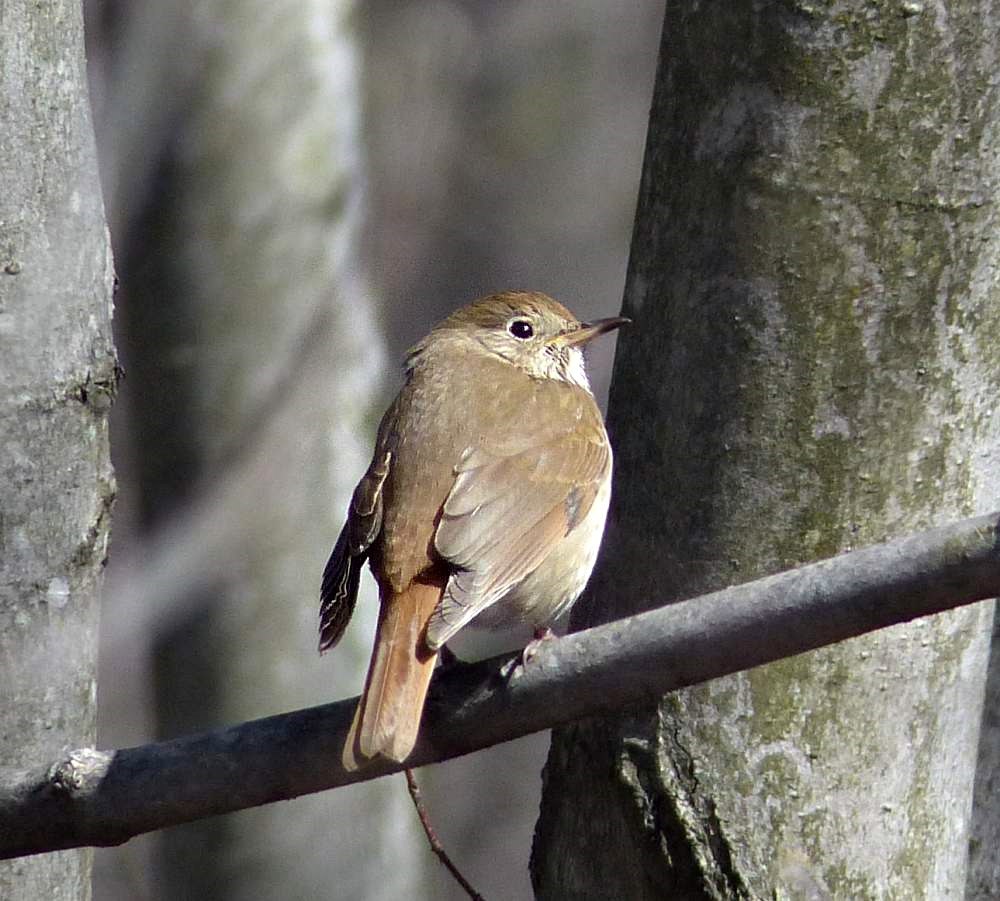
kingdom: Animalia
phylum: Chordata
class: Aves
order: Passeriformes
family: Turdidae
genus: Catharus
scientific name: Catharus guttatus
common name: Hermit thrush
